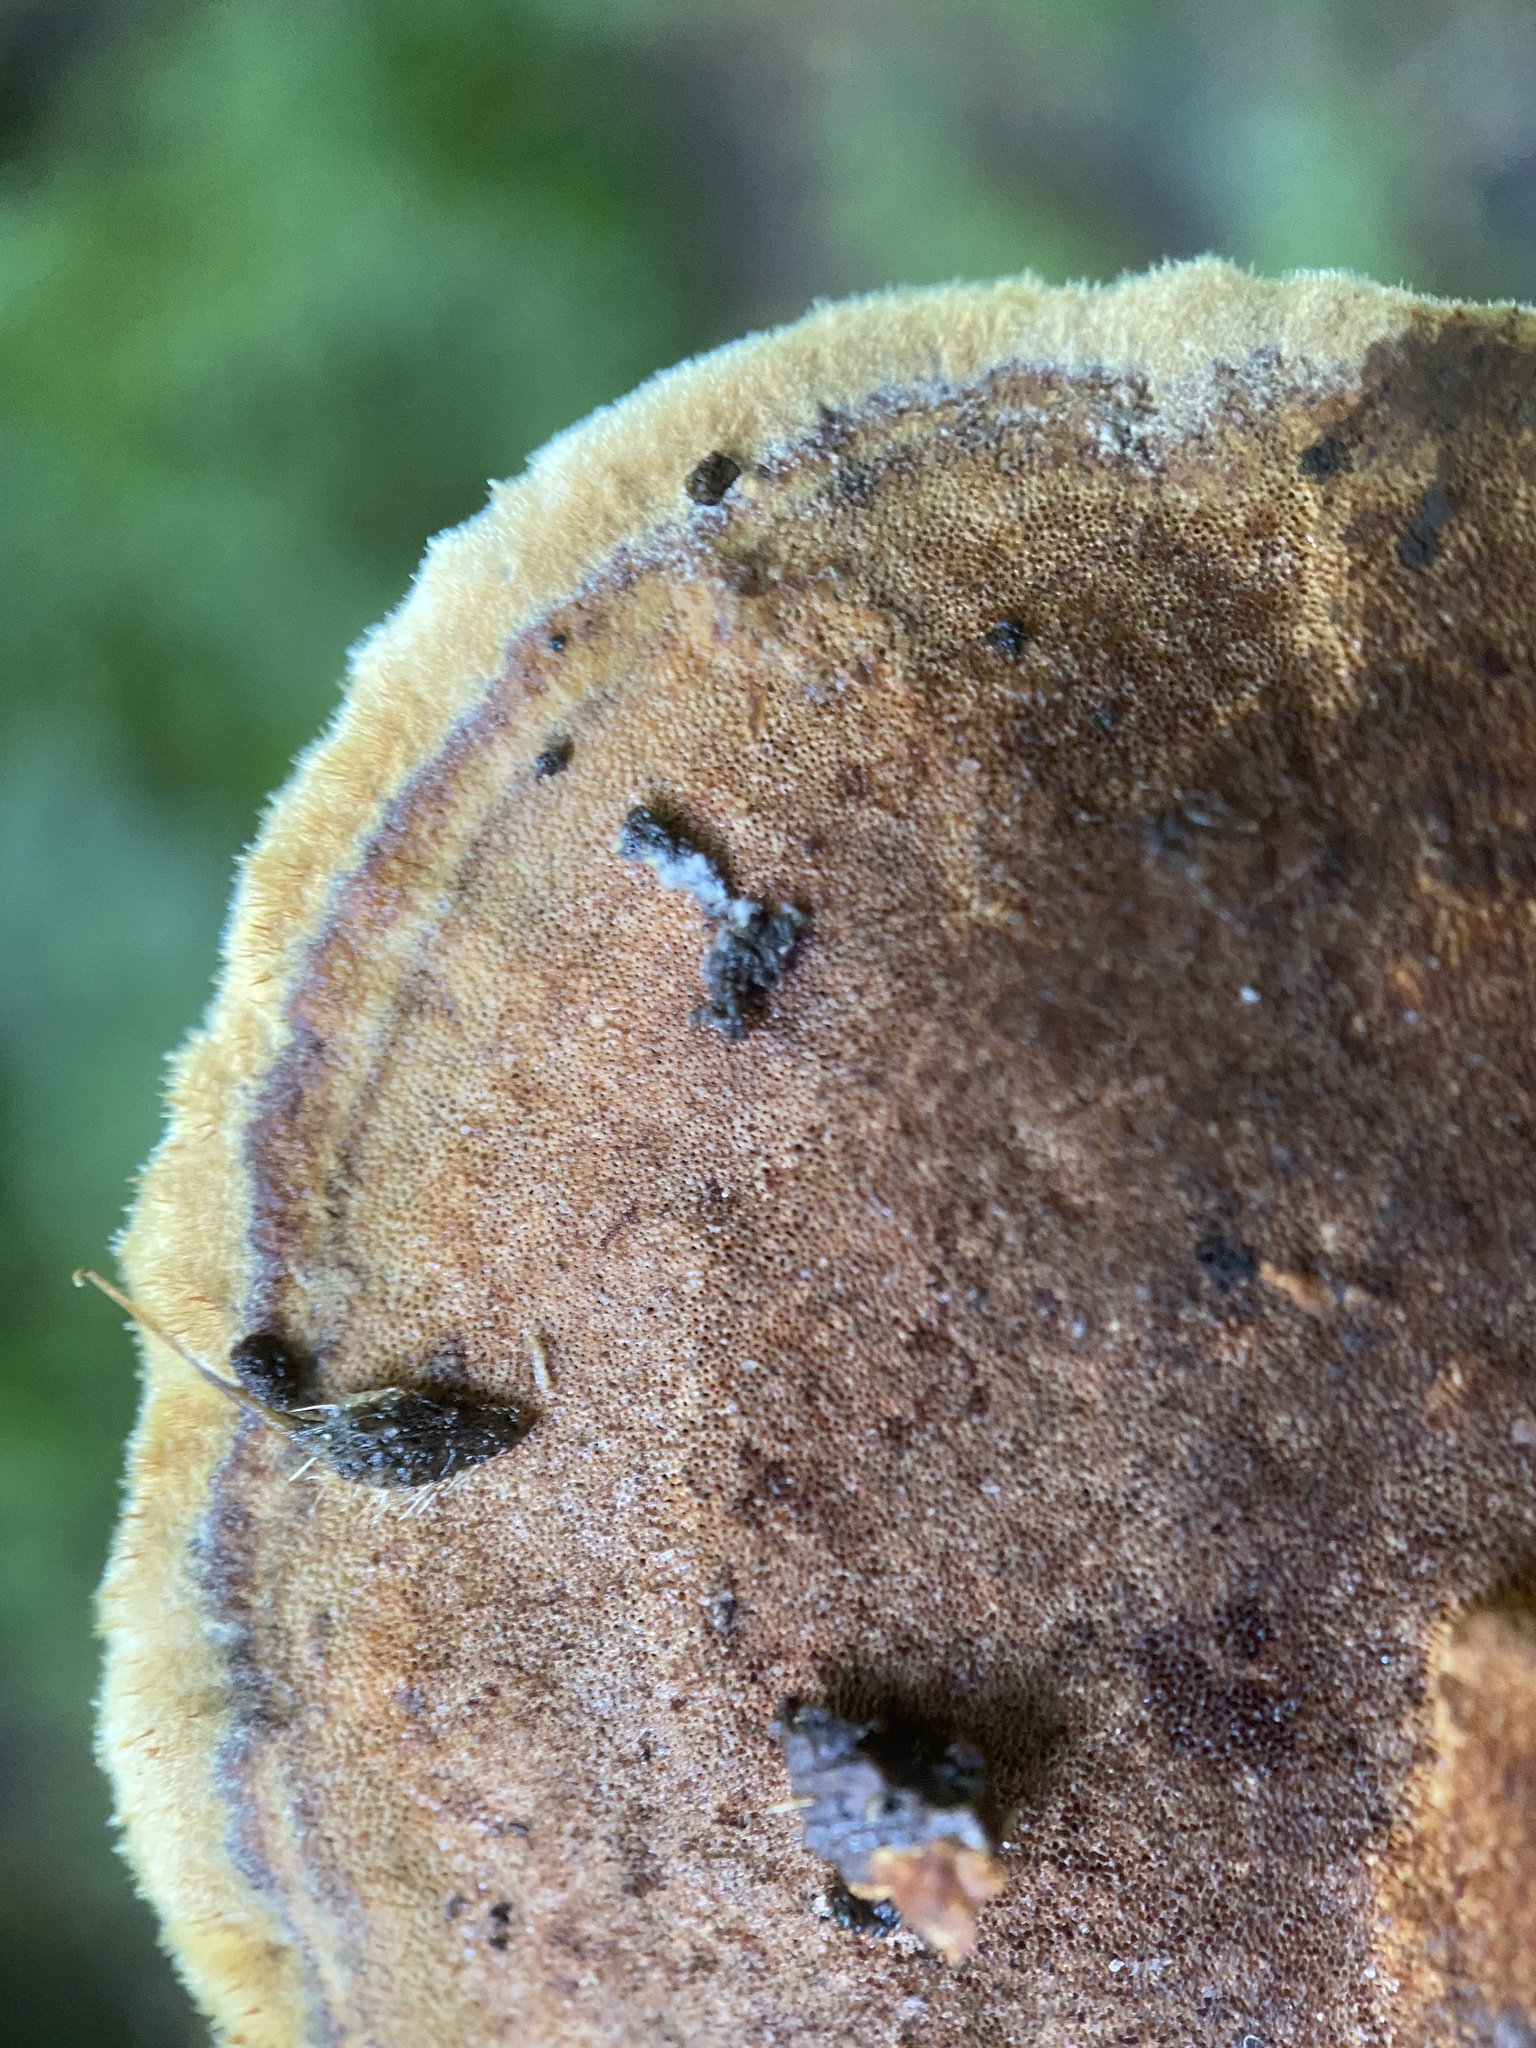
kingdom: Fungi
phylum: Basidiomycota
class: Agaricomycetes
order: Hymenochaetales
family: Hymenochaetaceae
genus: Phellinus
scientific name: Phellinus gilvus
